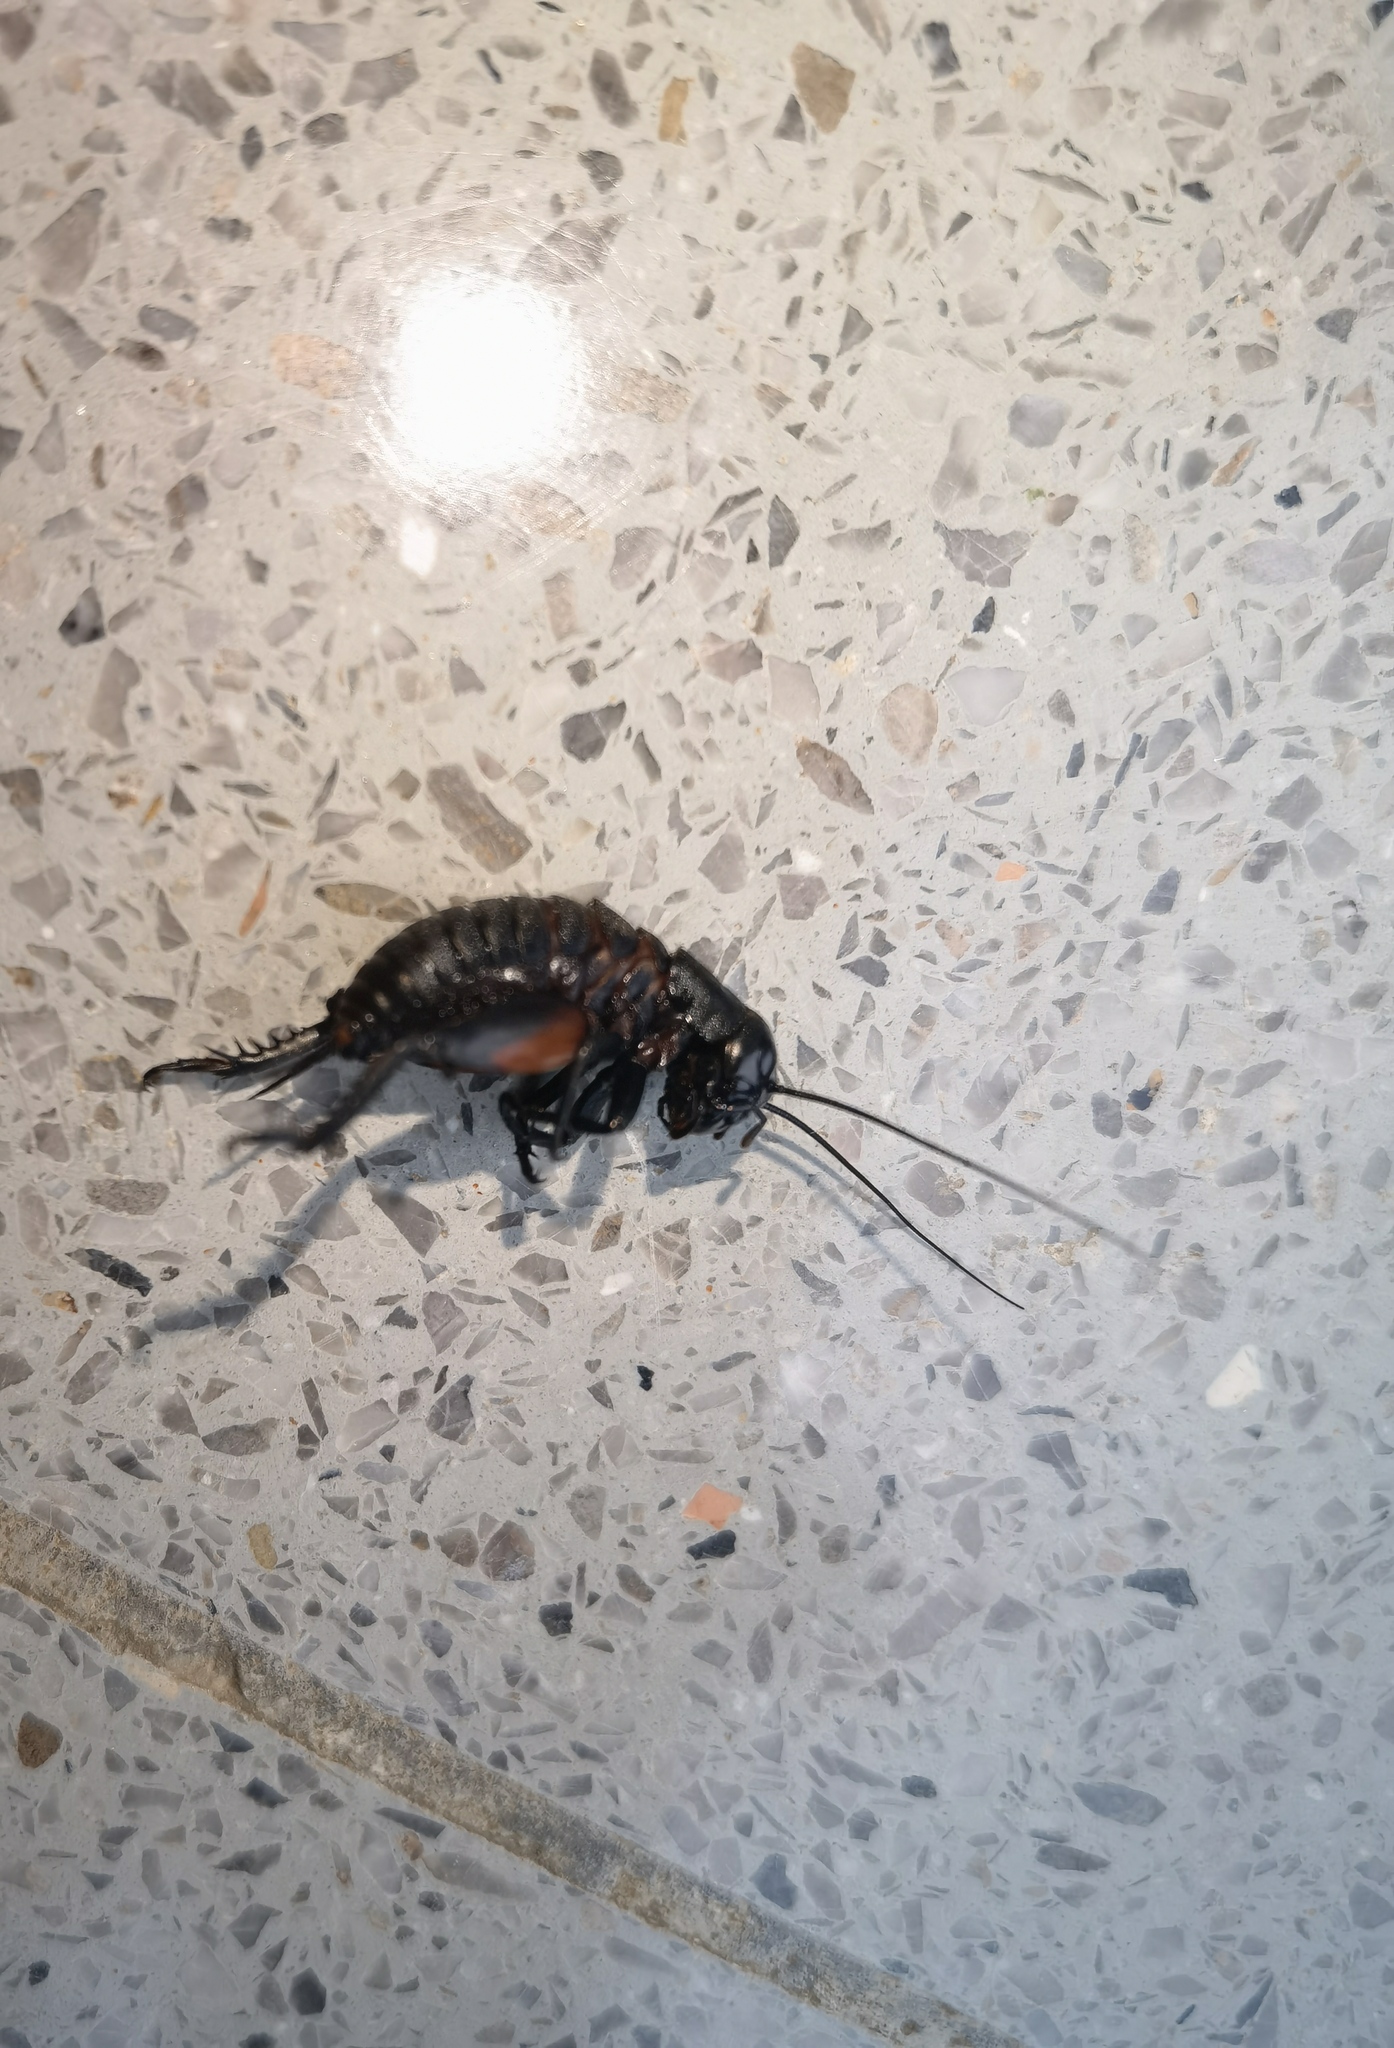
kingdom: Animalia
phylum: Arthropoda
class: Insecta
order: Orthoptera
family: Gryllidae
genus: Gryllus
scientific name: Gryllus campestris
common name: Field cricket
